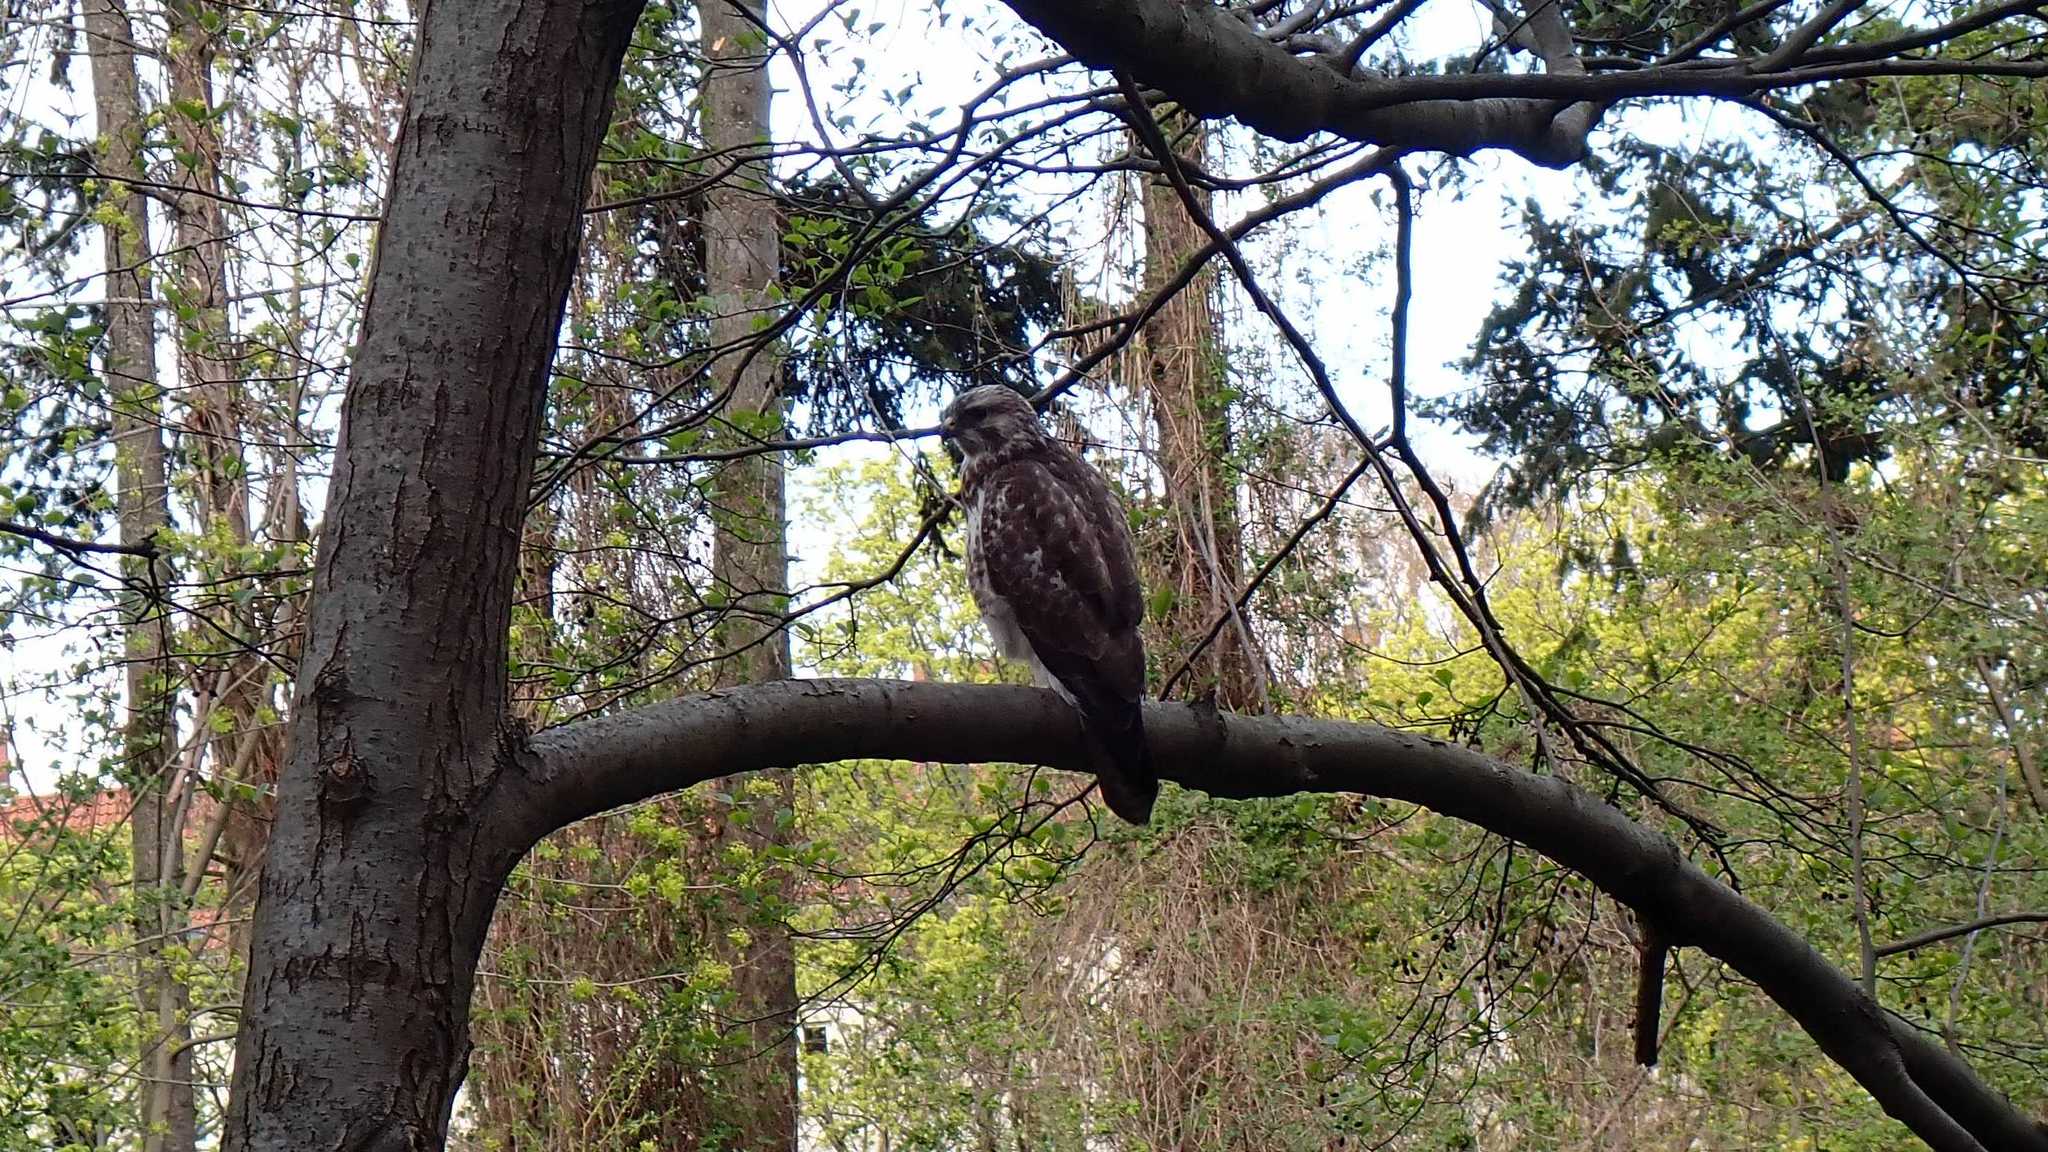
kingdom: Animalia
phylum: Chordata
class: Aves
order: Accipitriformes
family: Accipitridae
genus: Buteo
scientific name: Buteo buteo
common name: Common buzzard
